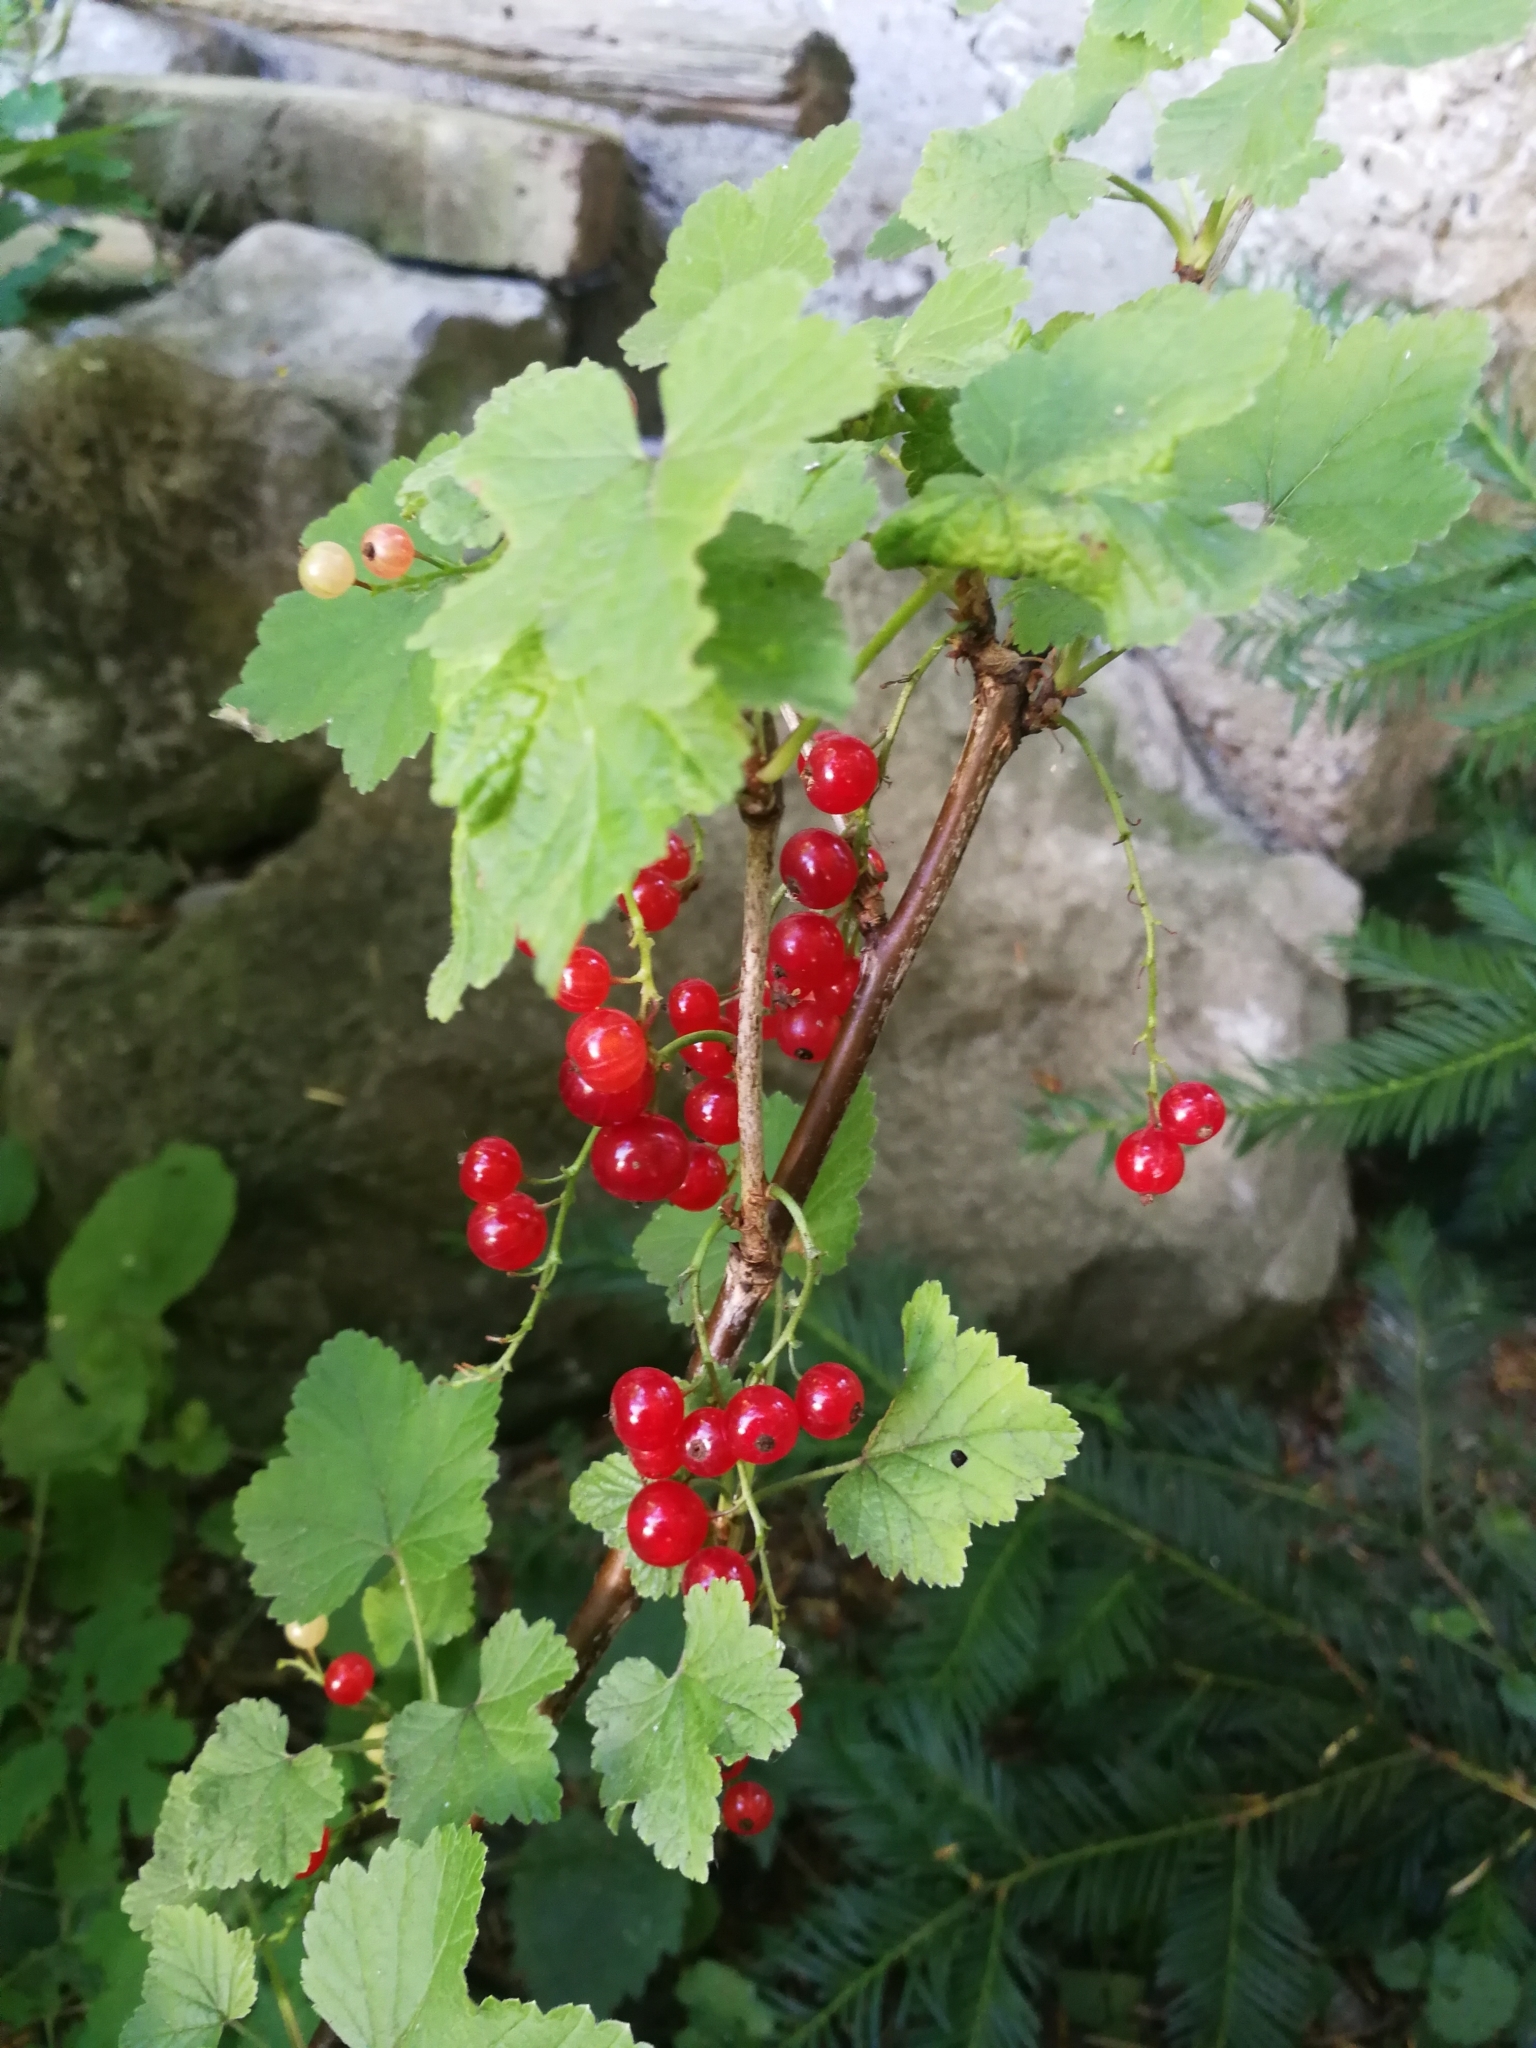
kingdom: Plantae
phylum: Tracheophyta
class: Magnoliopsida
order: Saxifragales
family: Grossulariaceae
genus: Ribes
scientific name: Ribes rubrum
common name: Red currant
